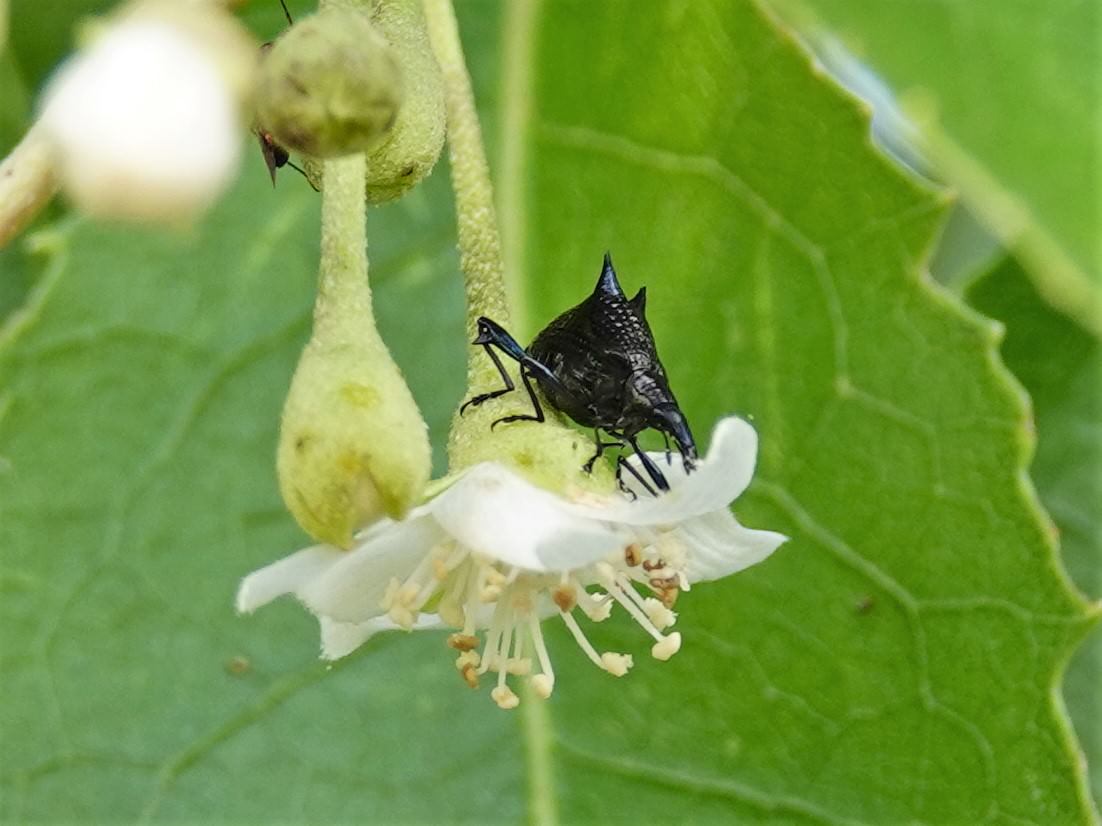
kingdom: Animalia
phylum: Arthropoda
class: Insecta
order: Coleoptera
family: Curculionidae
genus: Scolopterus
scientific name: Scolopterus aequus
